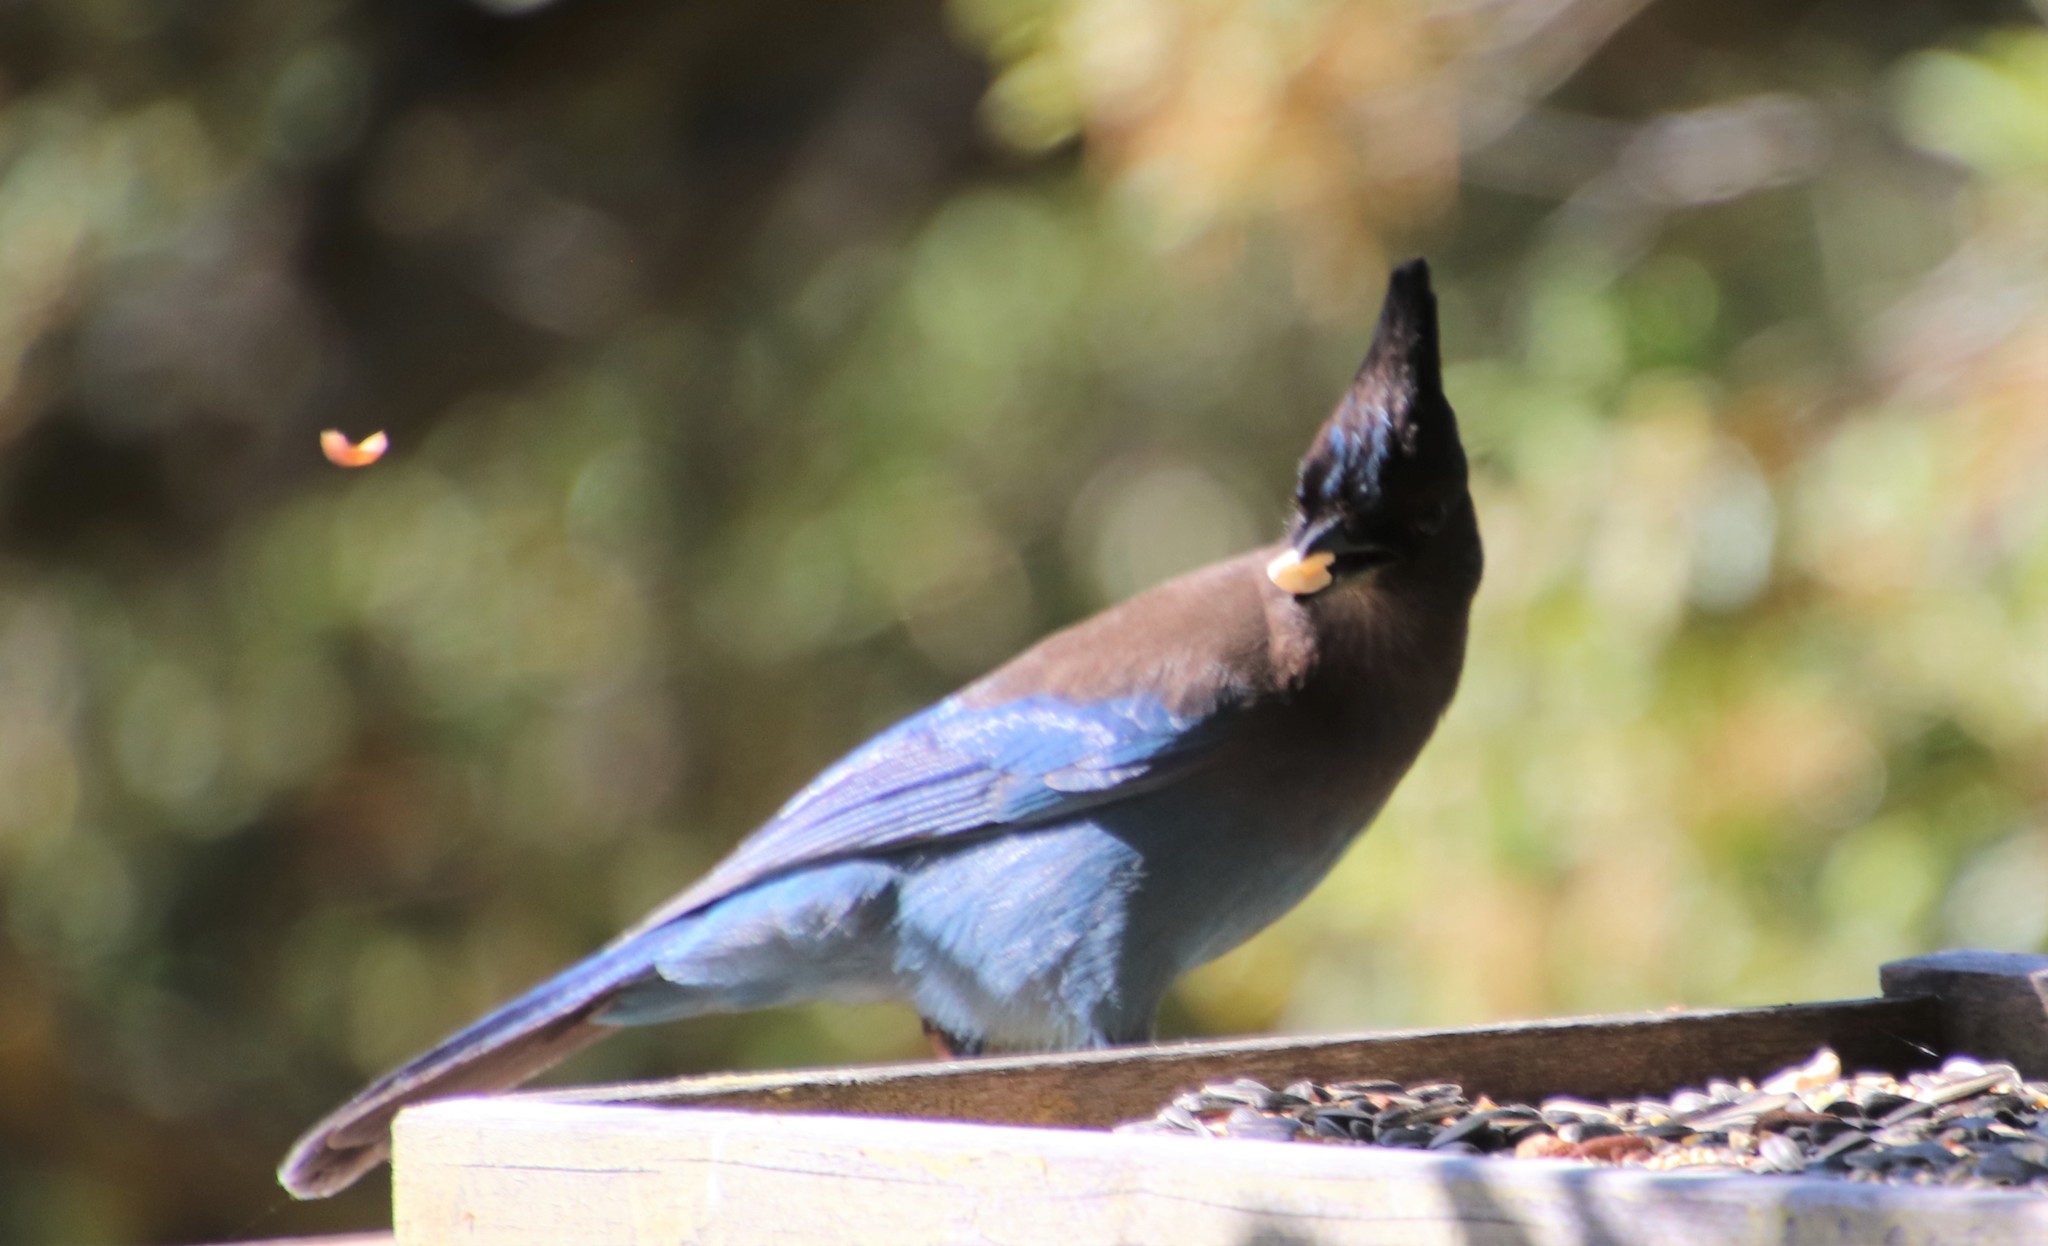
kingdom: Animalia
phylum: Chordata
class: Aves
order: Passeriformes
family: Corvidae
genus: Cyanocitta
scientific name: Cyanocitta stelleri
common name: Steller's jay
